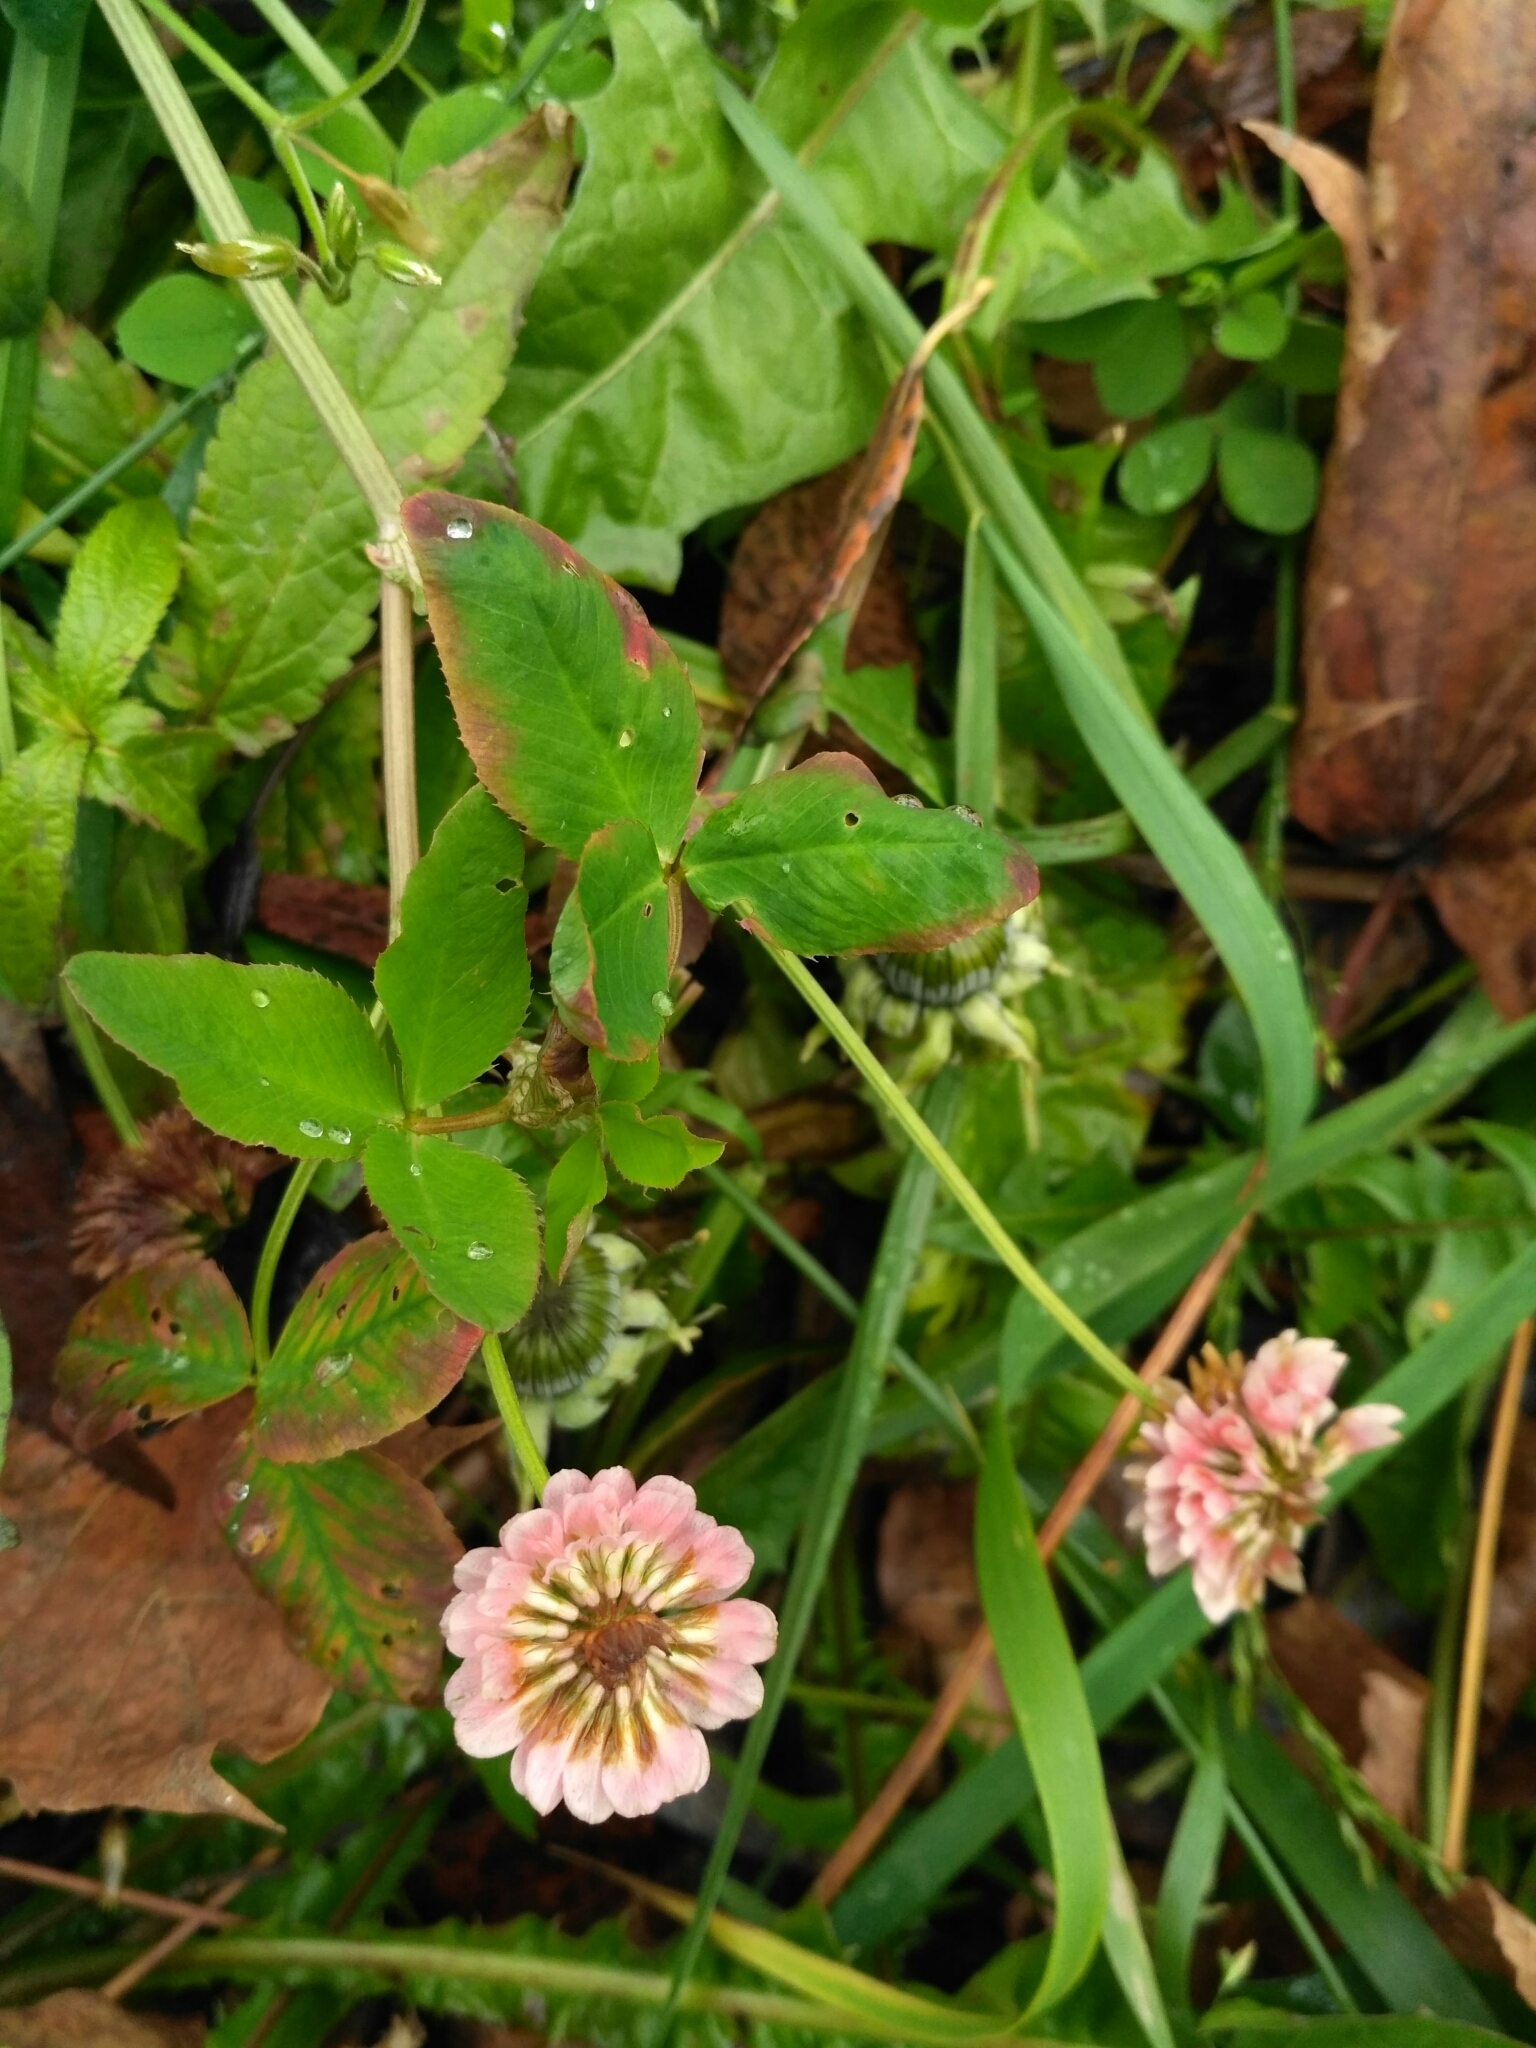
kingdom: Plantae
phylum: Tracheophyta
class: Magnoliopsida
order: Fabales
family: Fabaceae
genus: Trifolium
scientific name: Trifolium hybridum
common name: Alsike clover
